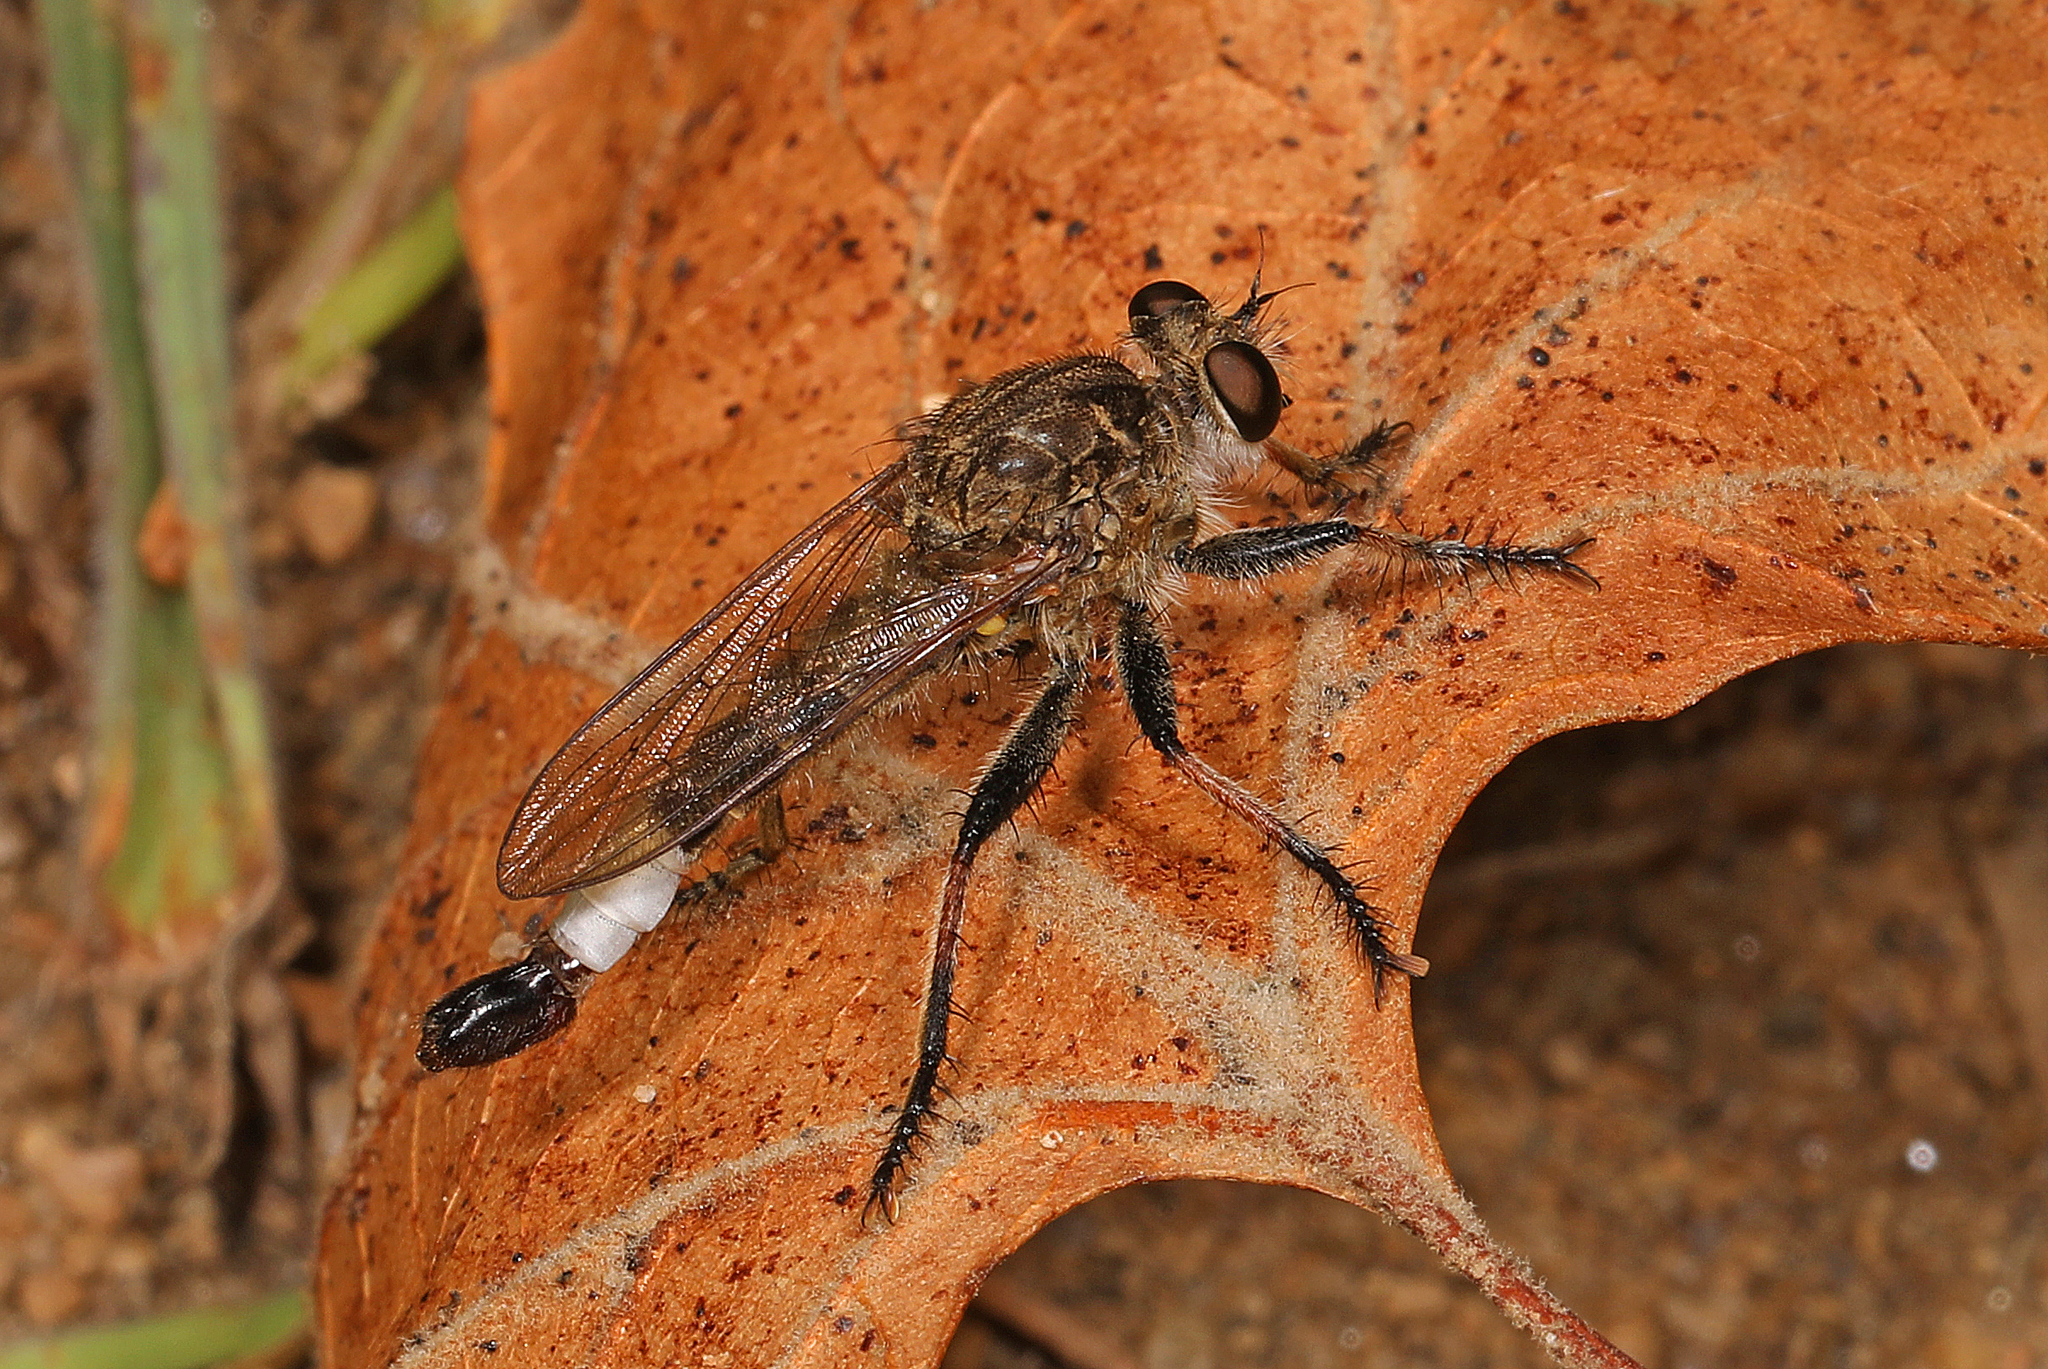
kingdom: Animalia
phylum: Arthropoda
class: Insecta
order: Diptera
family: Asilidae
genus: Efferia
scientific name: Efferia albibarbis
